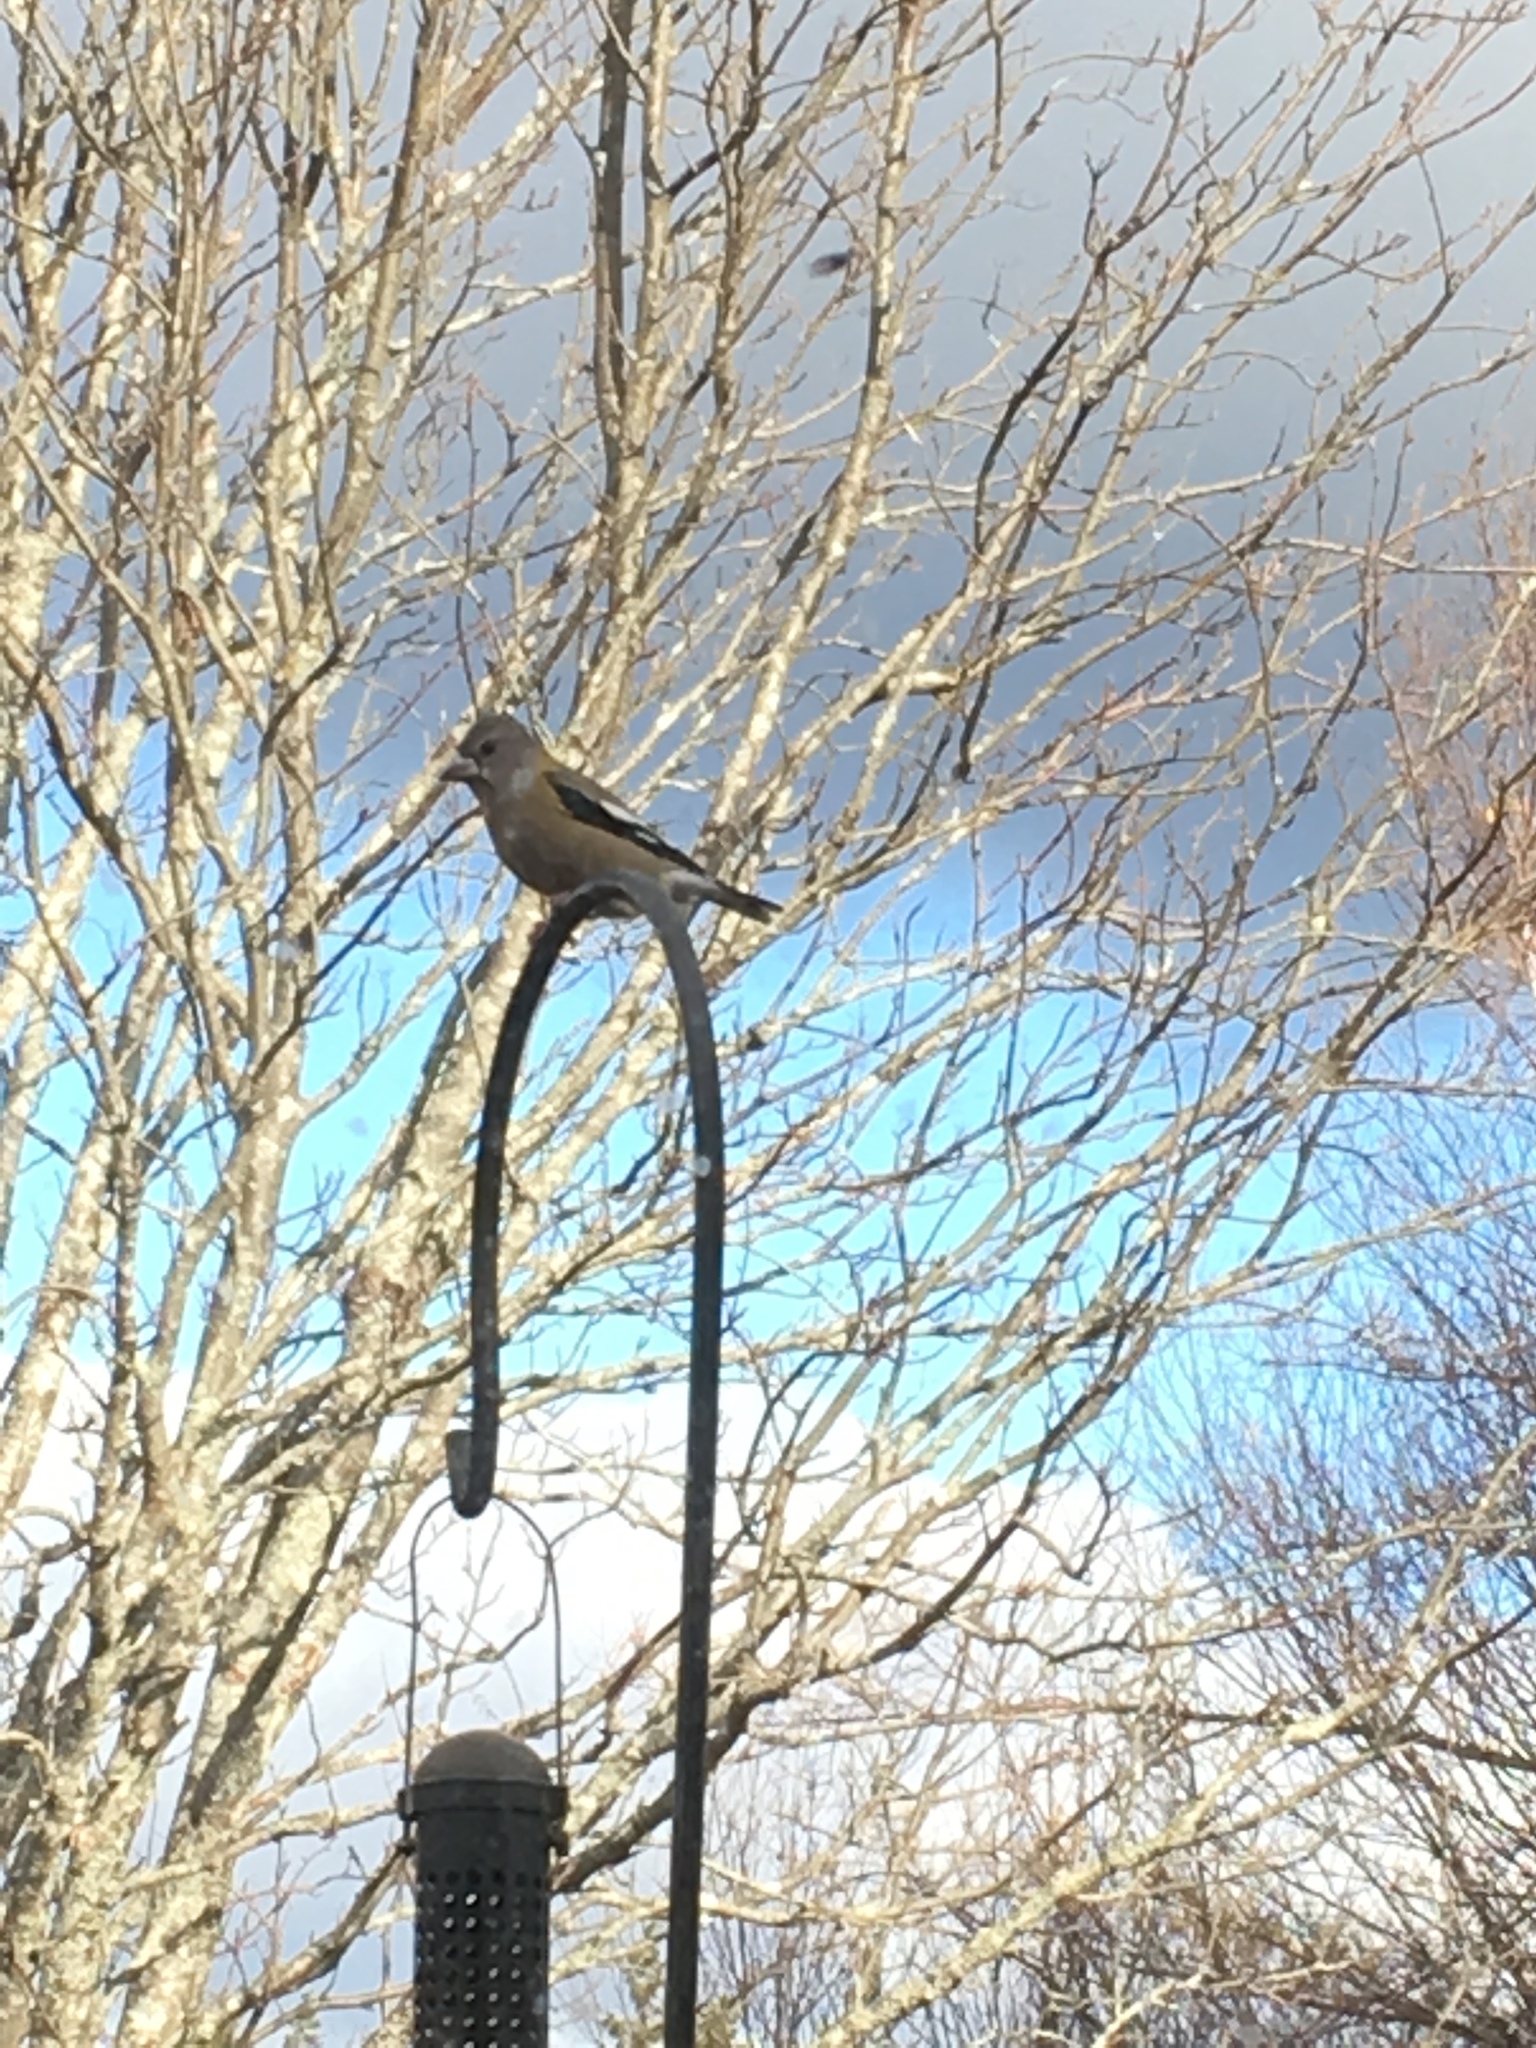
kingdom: Animalia
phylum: Chordata
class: Aves
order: Passeriformes
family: Fringillidae
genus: Hesperiphona
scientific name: Hesperiphona vespertina
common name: Evening grosbeak
